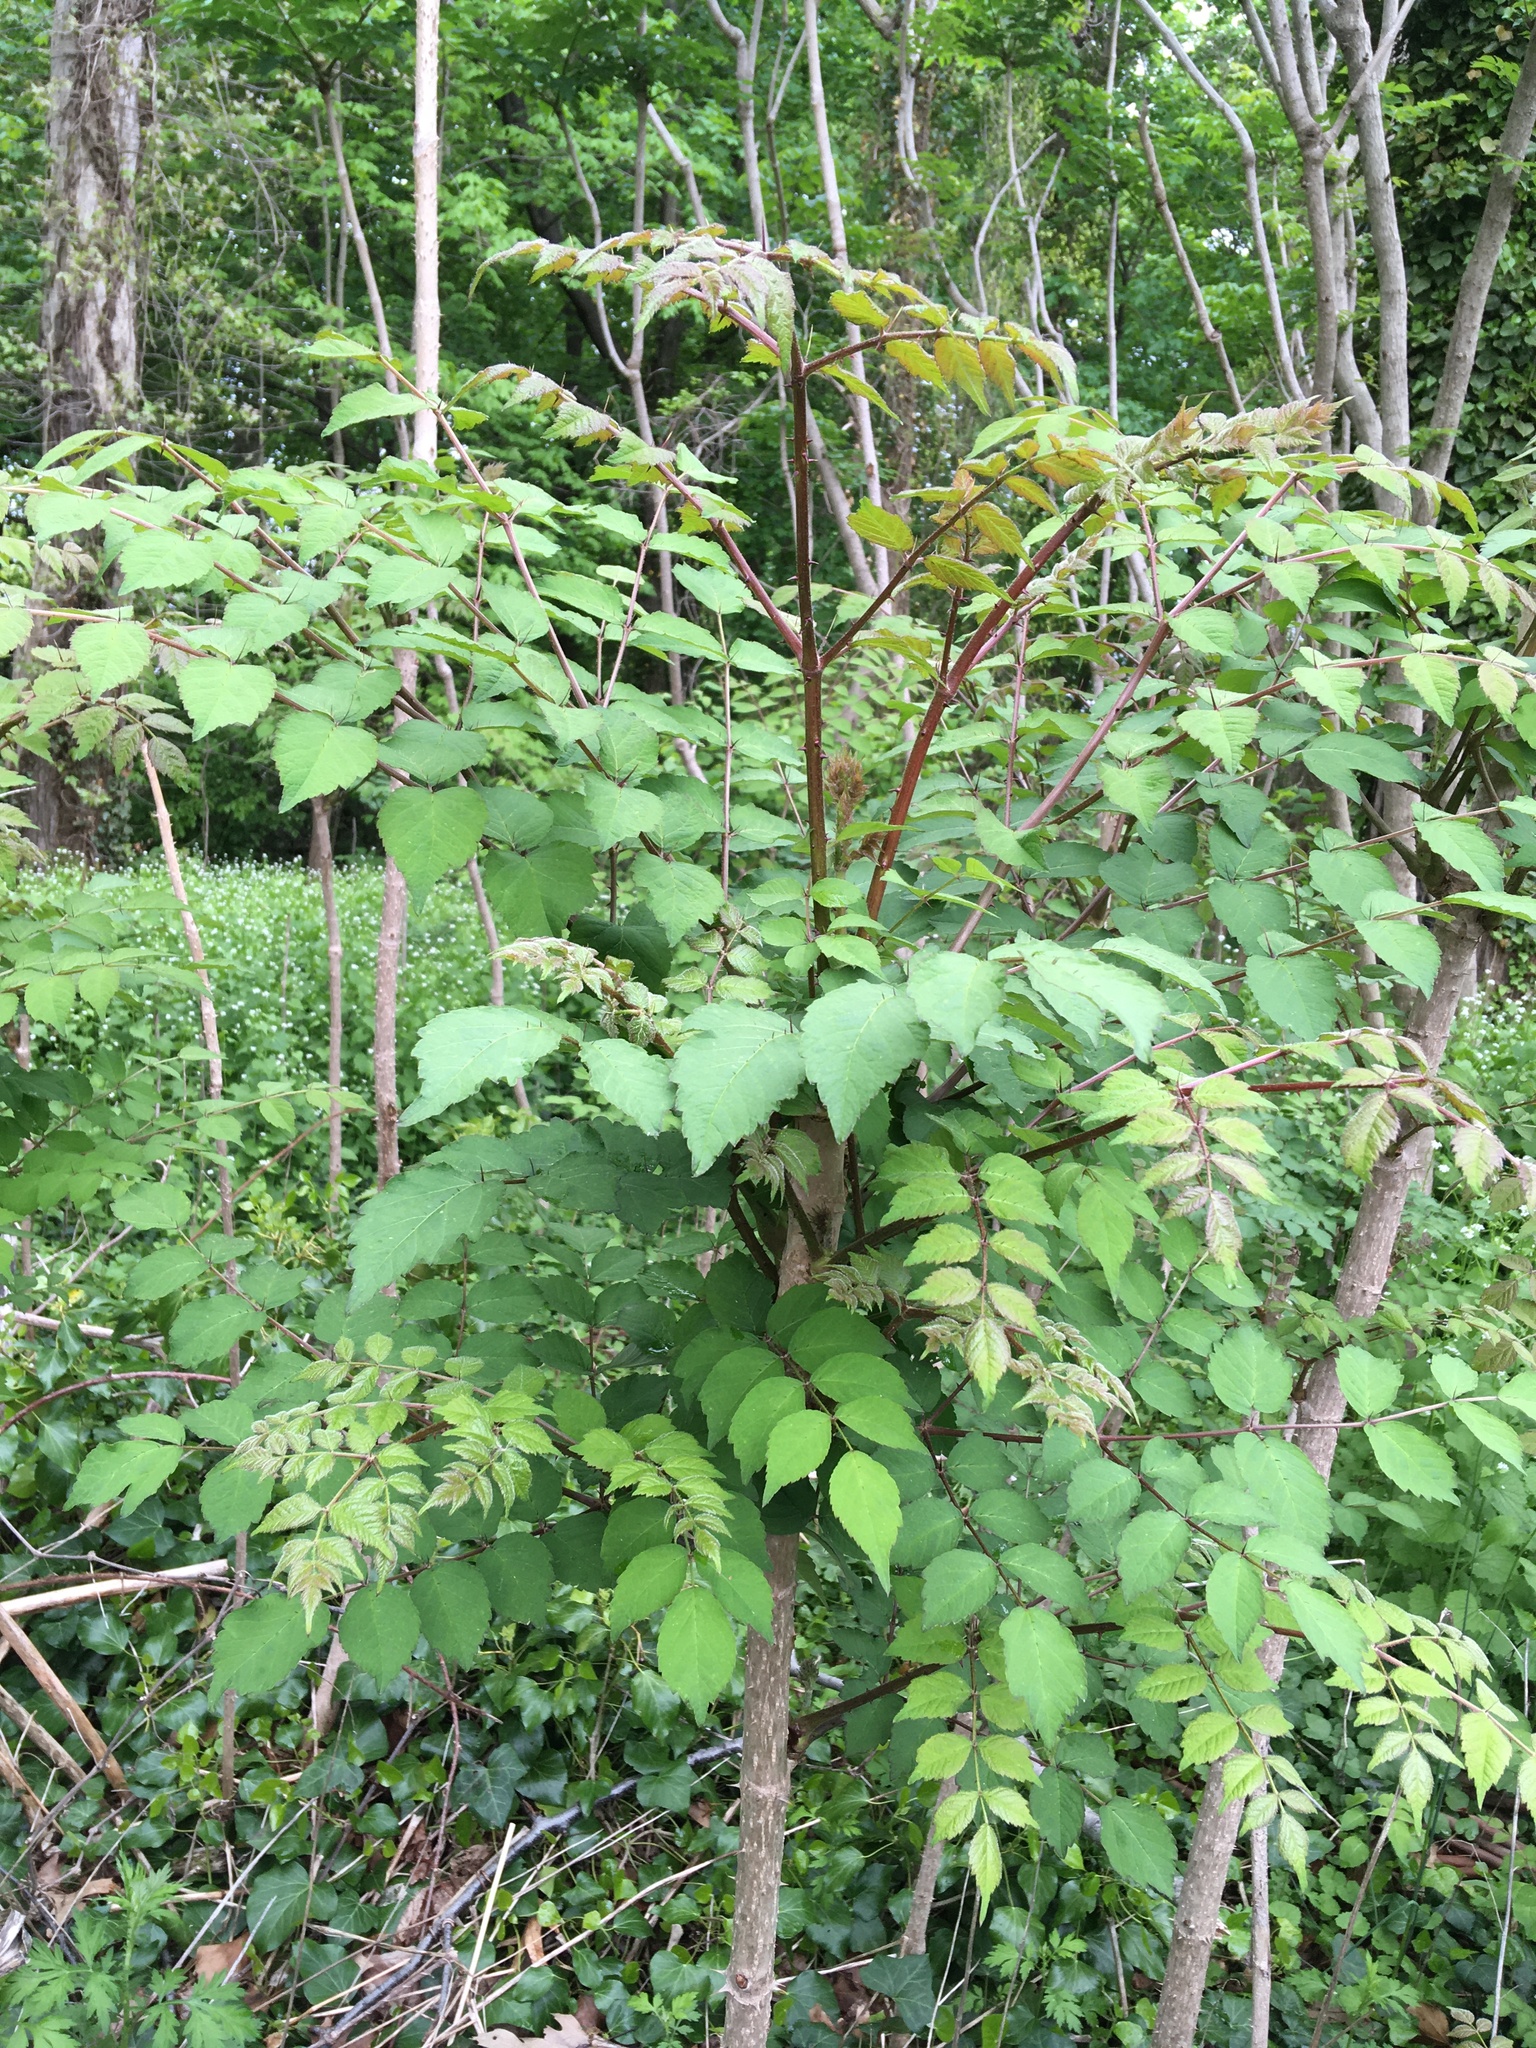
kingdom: Plantae
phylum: Tracheophyta
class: Magnoliopsida
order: Apiales
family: Araliaceae
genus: Aralia
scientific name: Aralia elata
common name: Japanese angelica-tree
